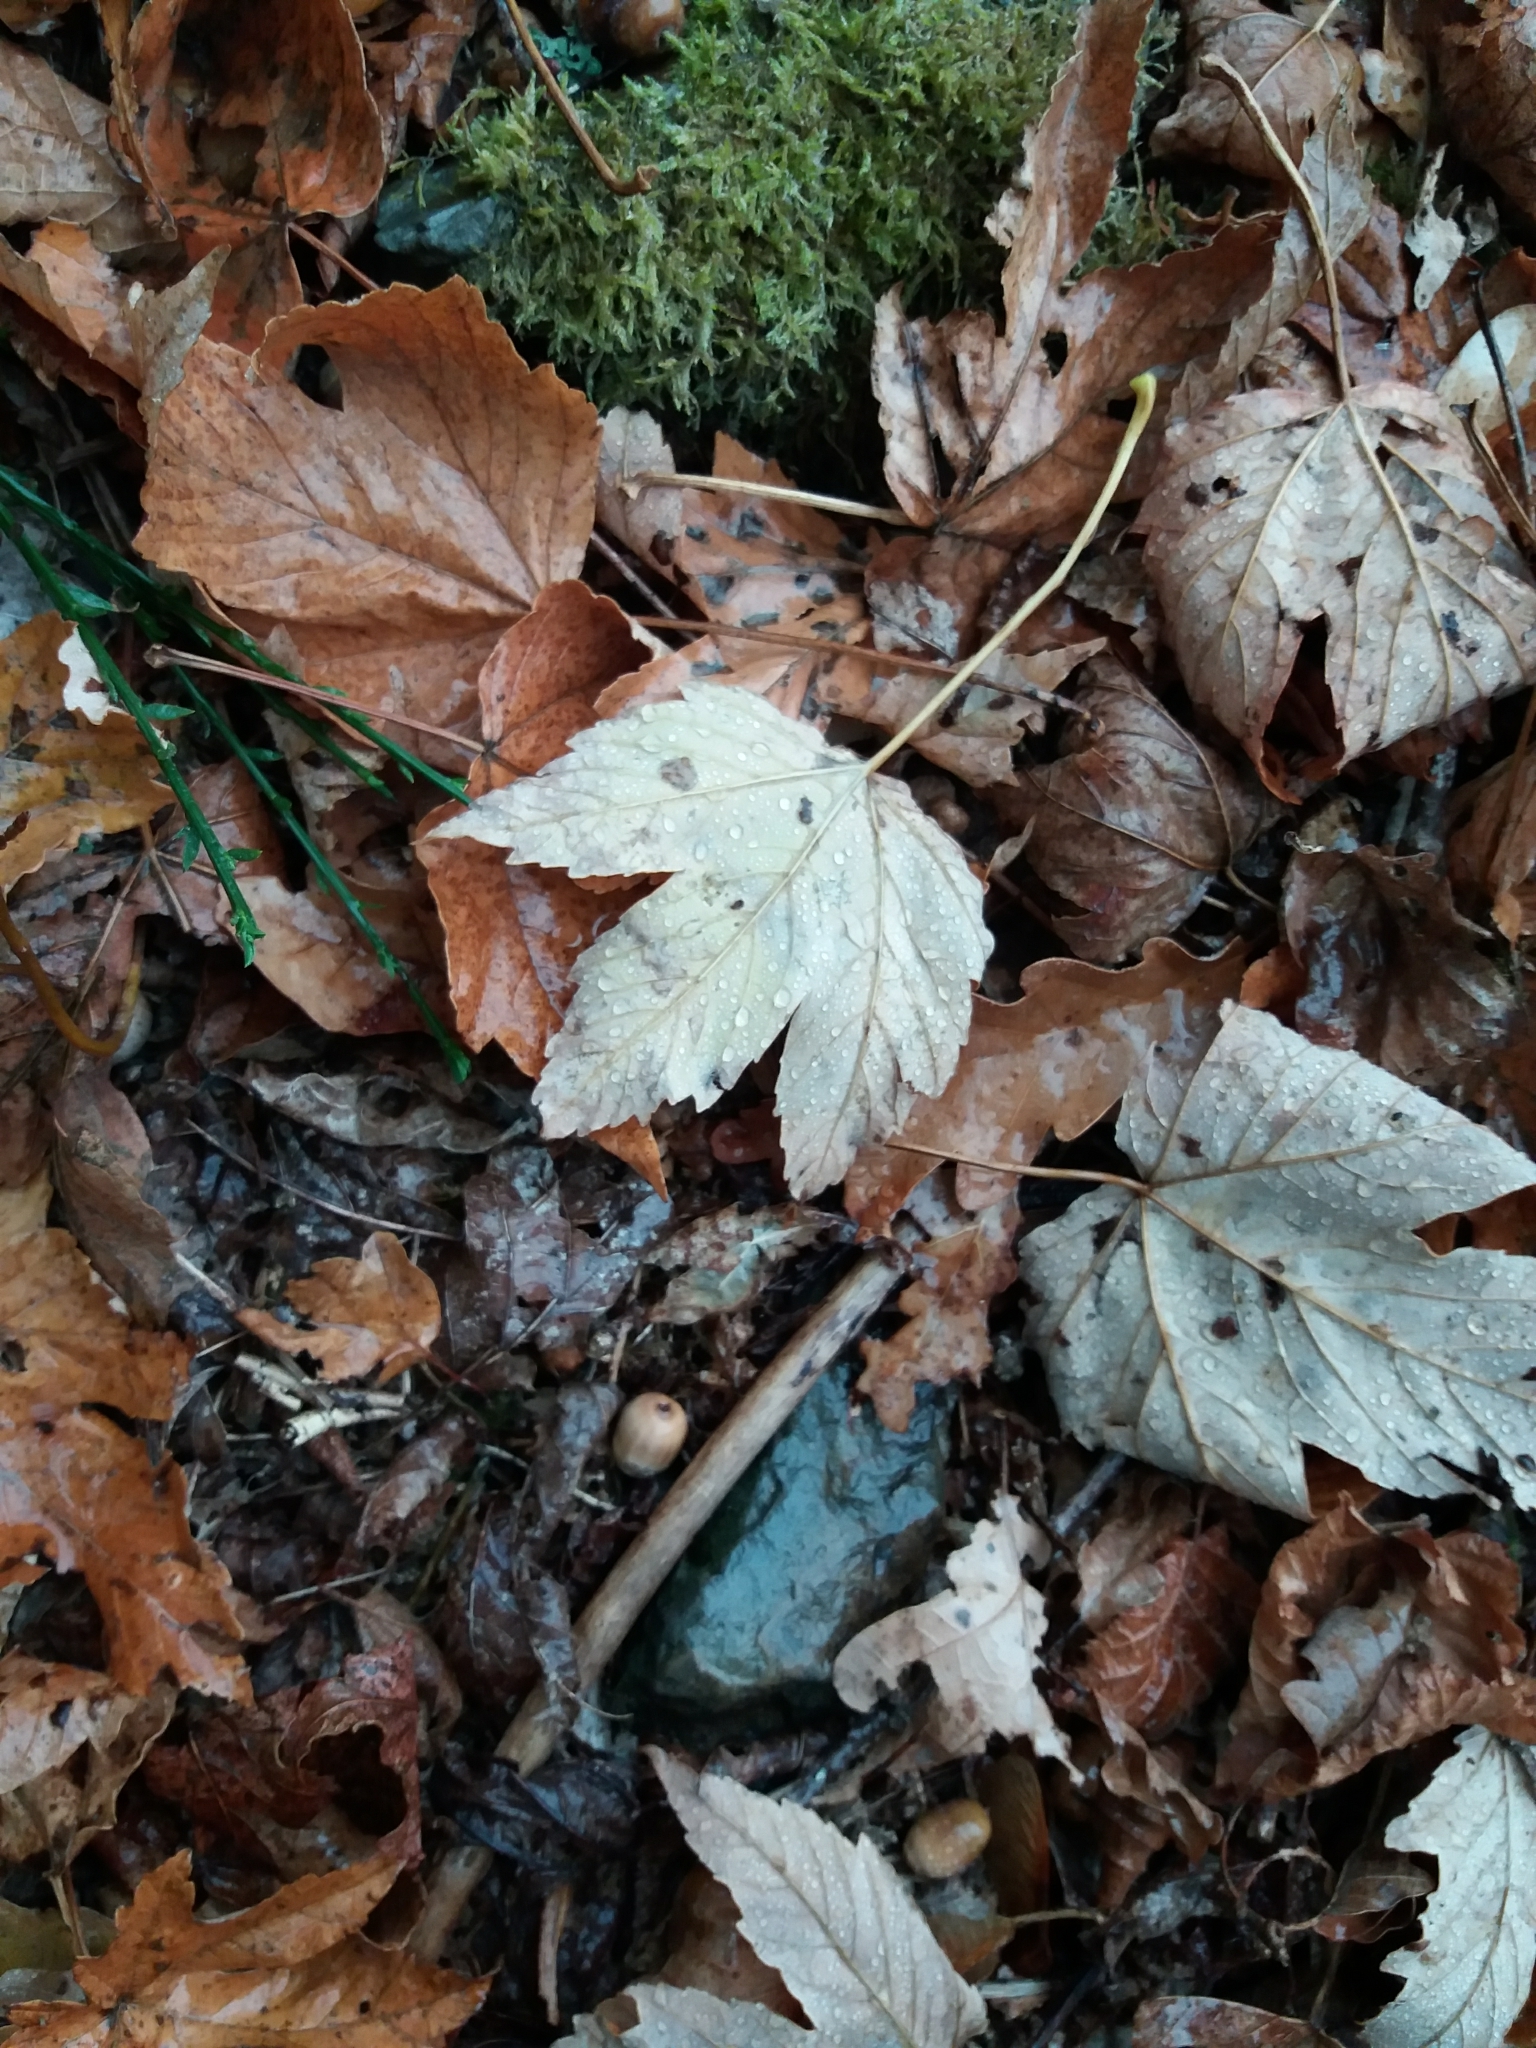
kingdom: Plantae
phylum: Tracheophyta
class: Magnoliopsida
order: Sapindales
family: Sapindaceae
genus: Acer
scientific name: Acer pseudoplatanus
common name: Sycamore
